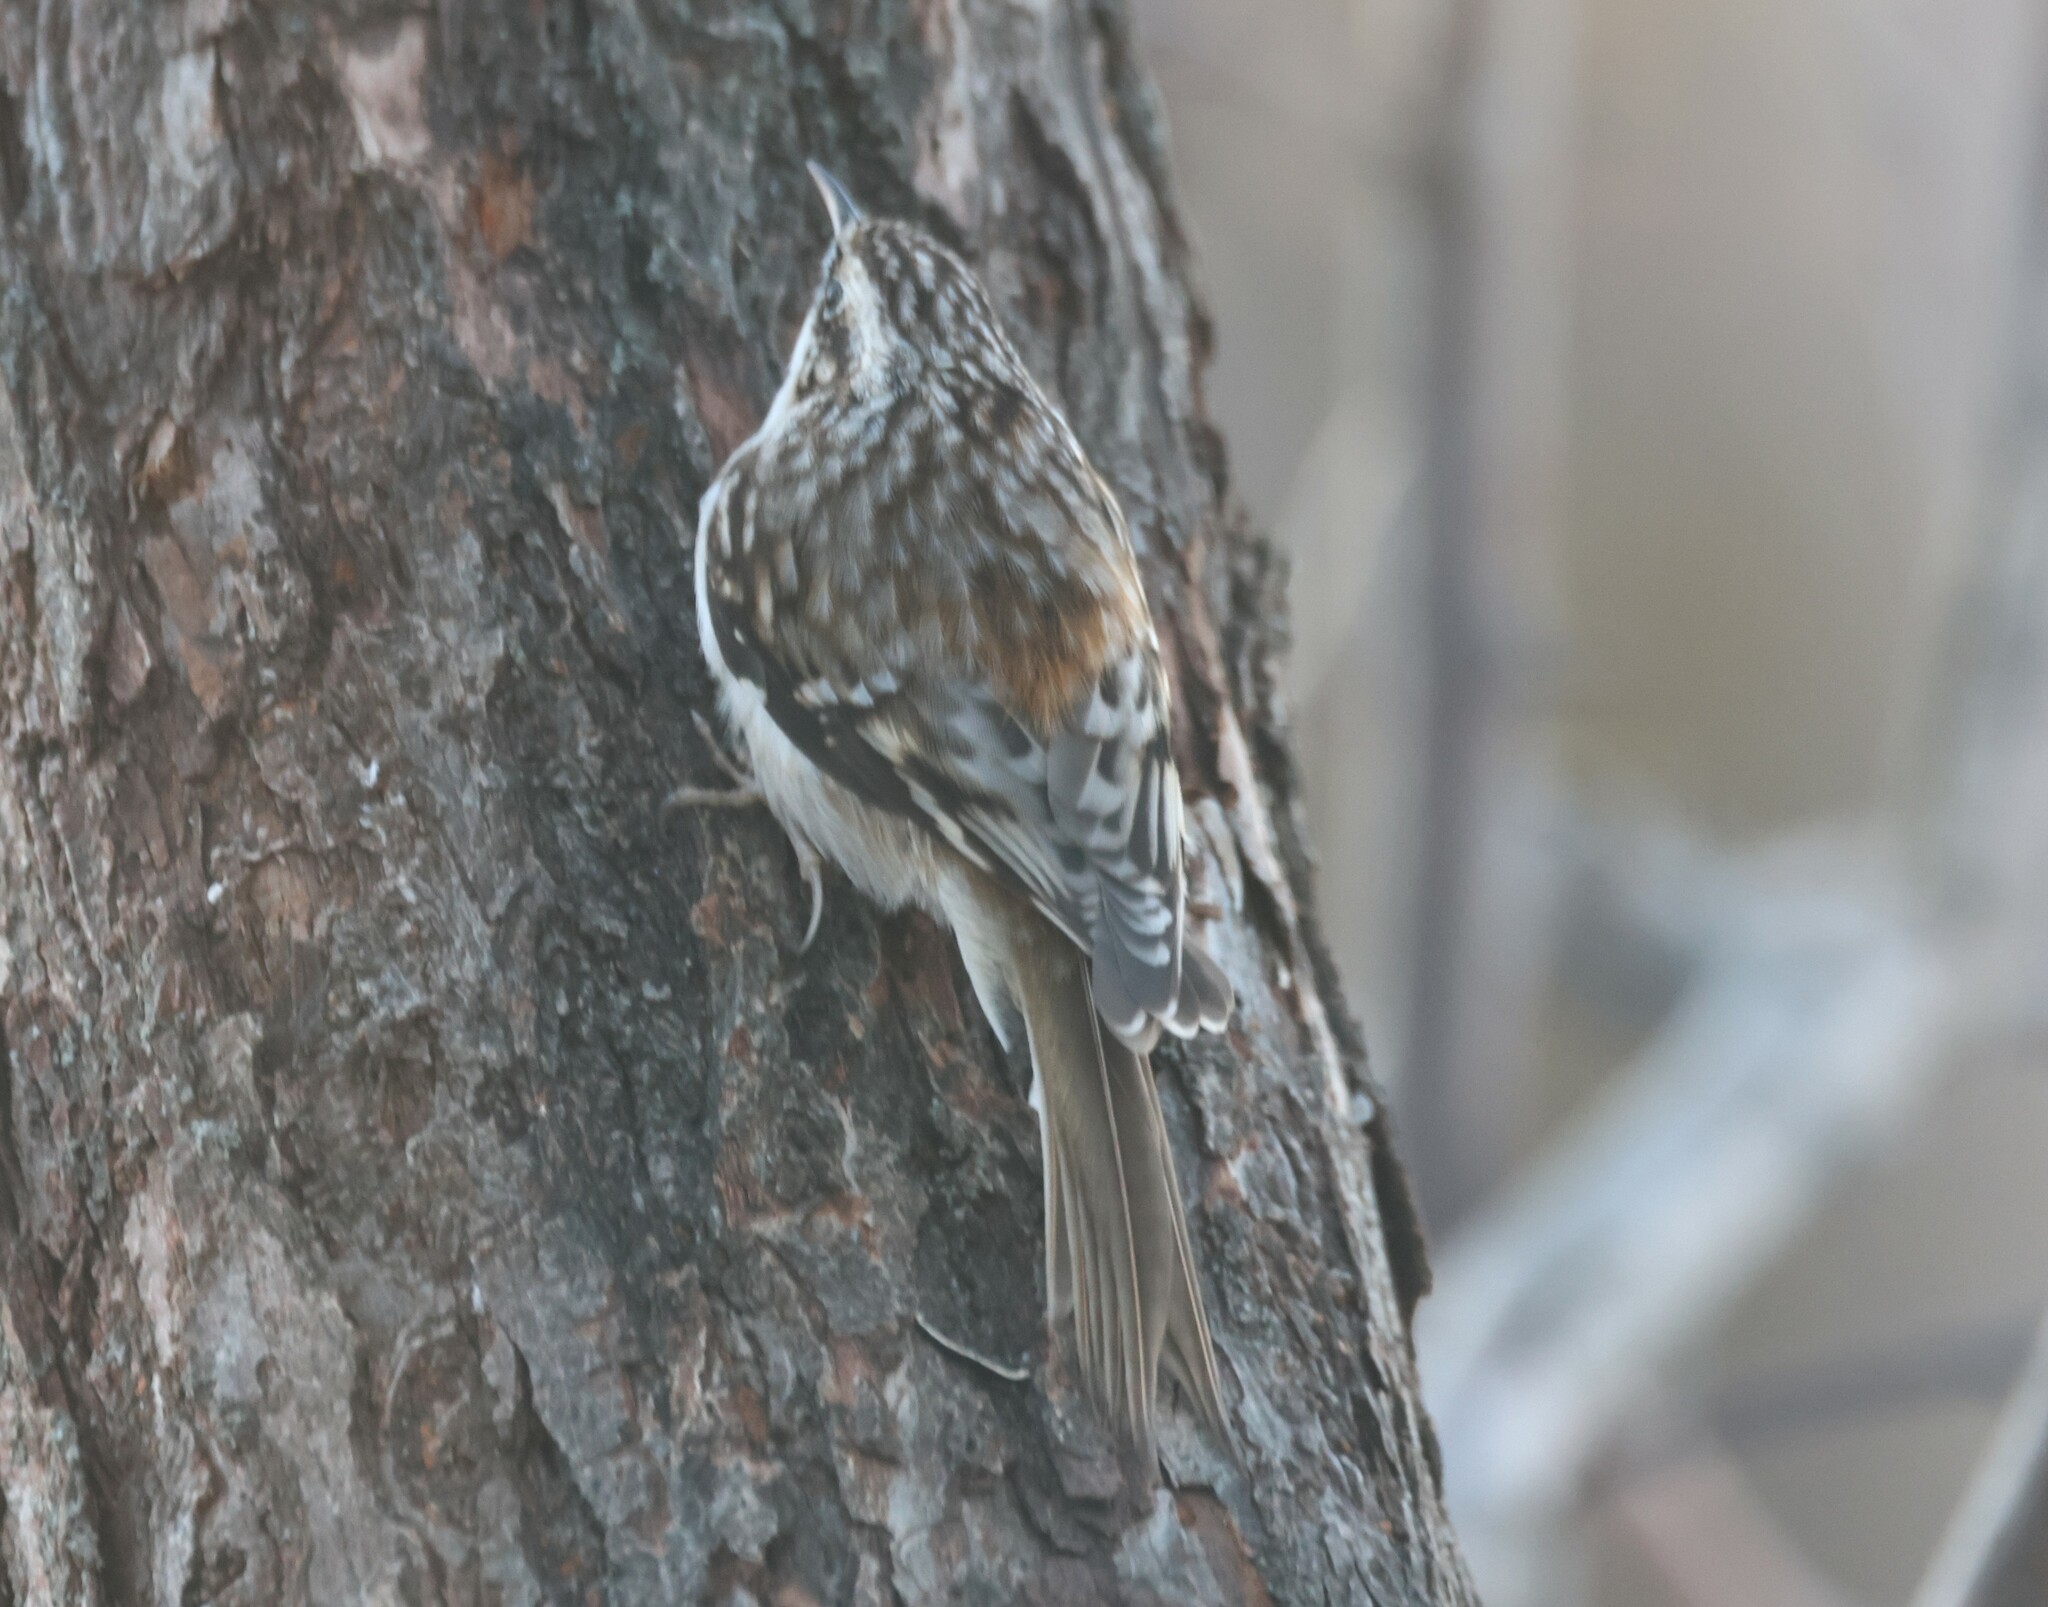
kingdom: Animalia
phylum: Chordata
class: Aves
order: Passeriformes
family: Certhiidae
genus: Certhia
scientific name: Certhia americana
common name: Brown creeper
